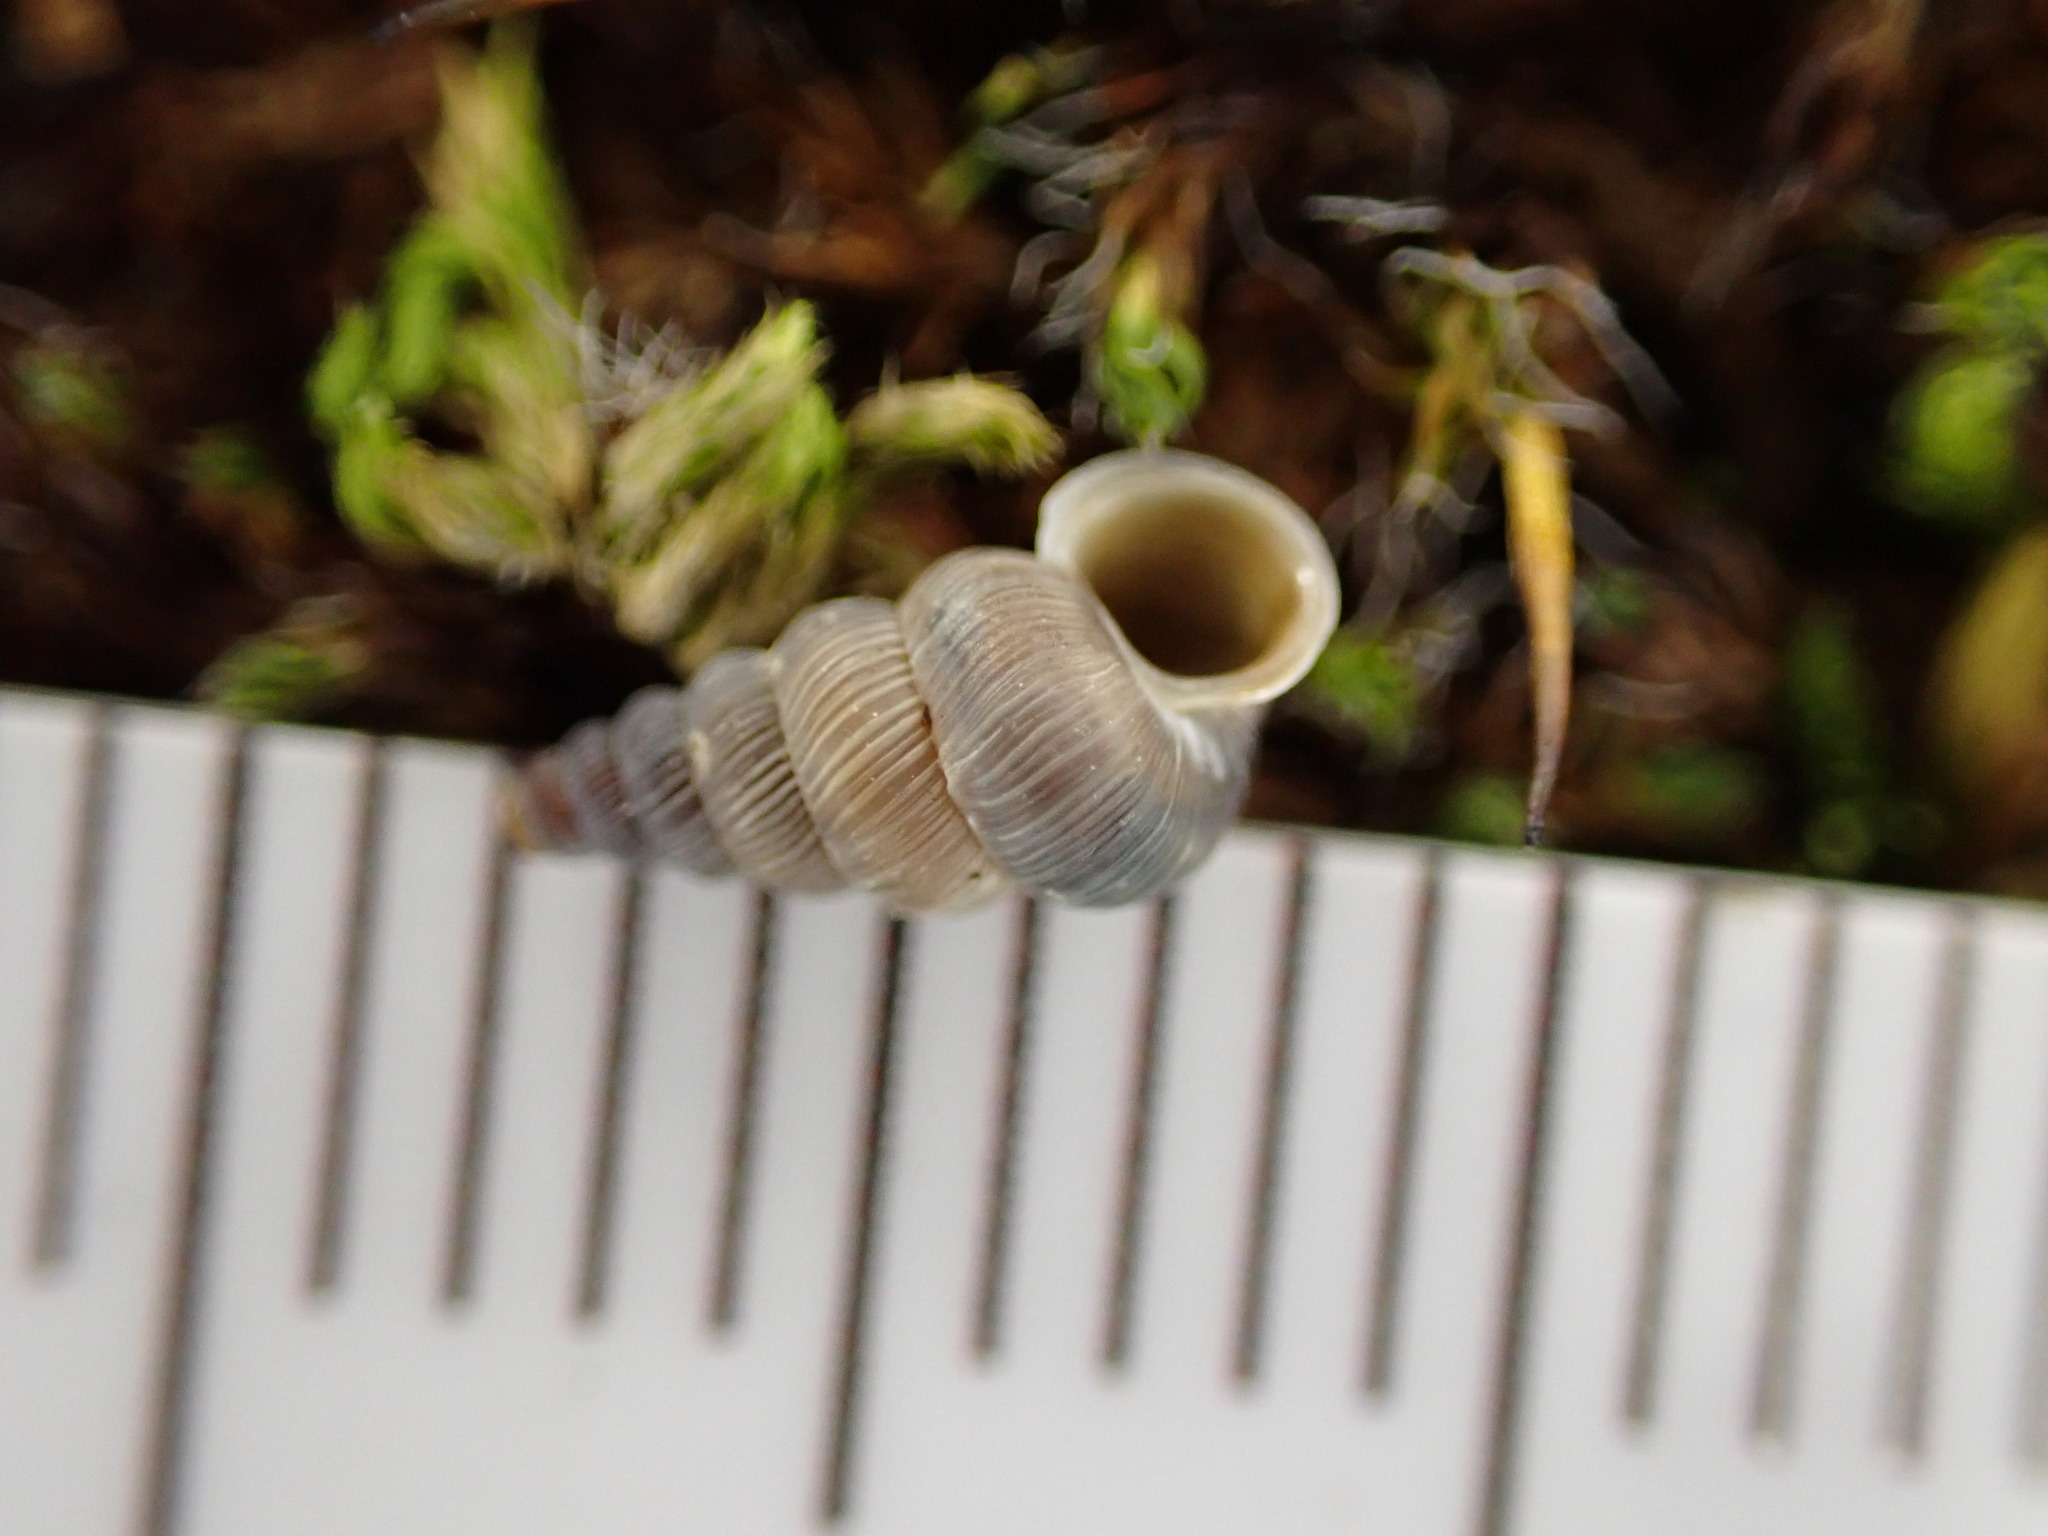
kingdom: Animalia
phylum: Mollusca
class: Gastropoda
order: Architaenioglossa
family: Cochlostomatidae
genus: Cochlostoma
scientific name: Cochlostoma patulum
